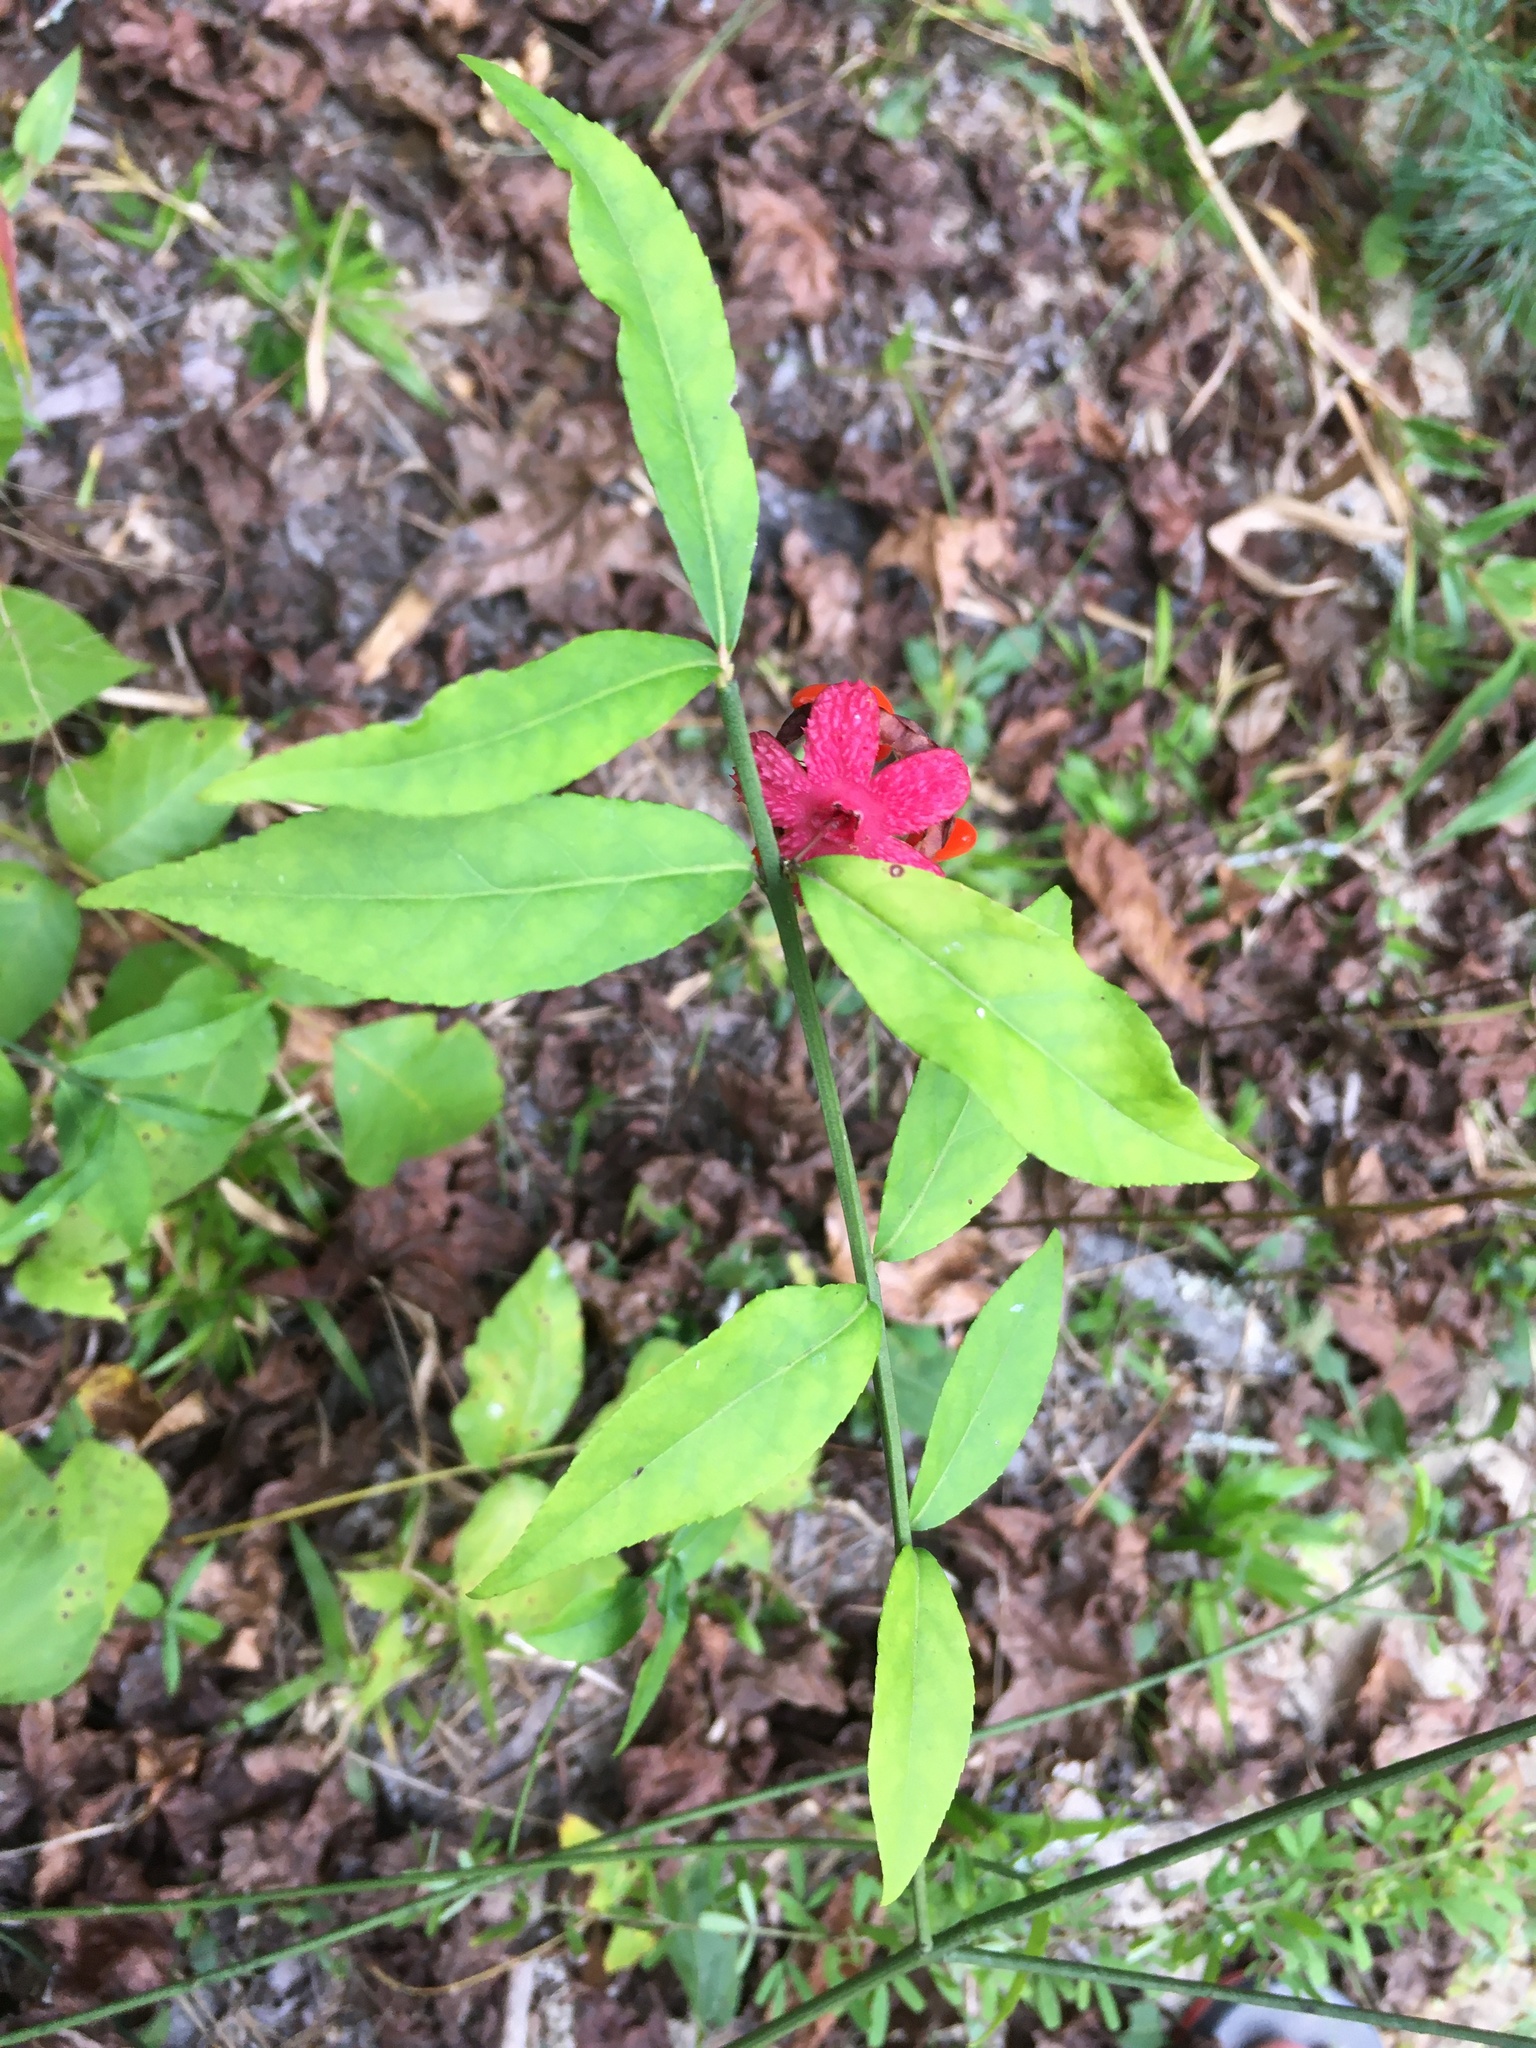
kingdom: Plantae
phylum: Tracheophyta
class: Magnoliopsida
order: Celastrales
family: Celastraceae
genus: Euonymus
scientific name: Euonymus americanus
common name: Bursting-heart
